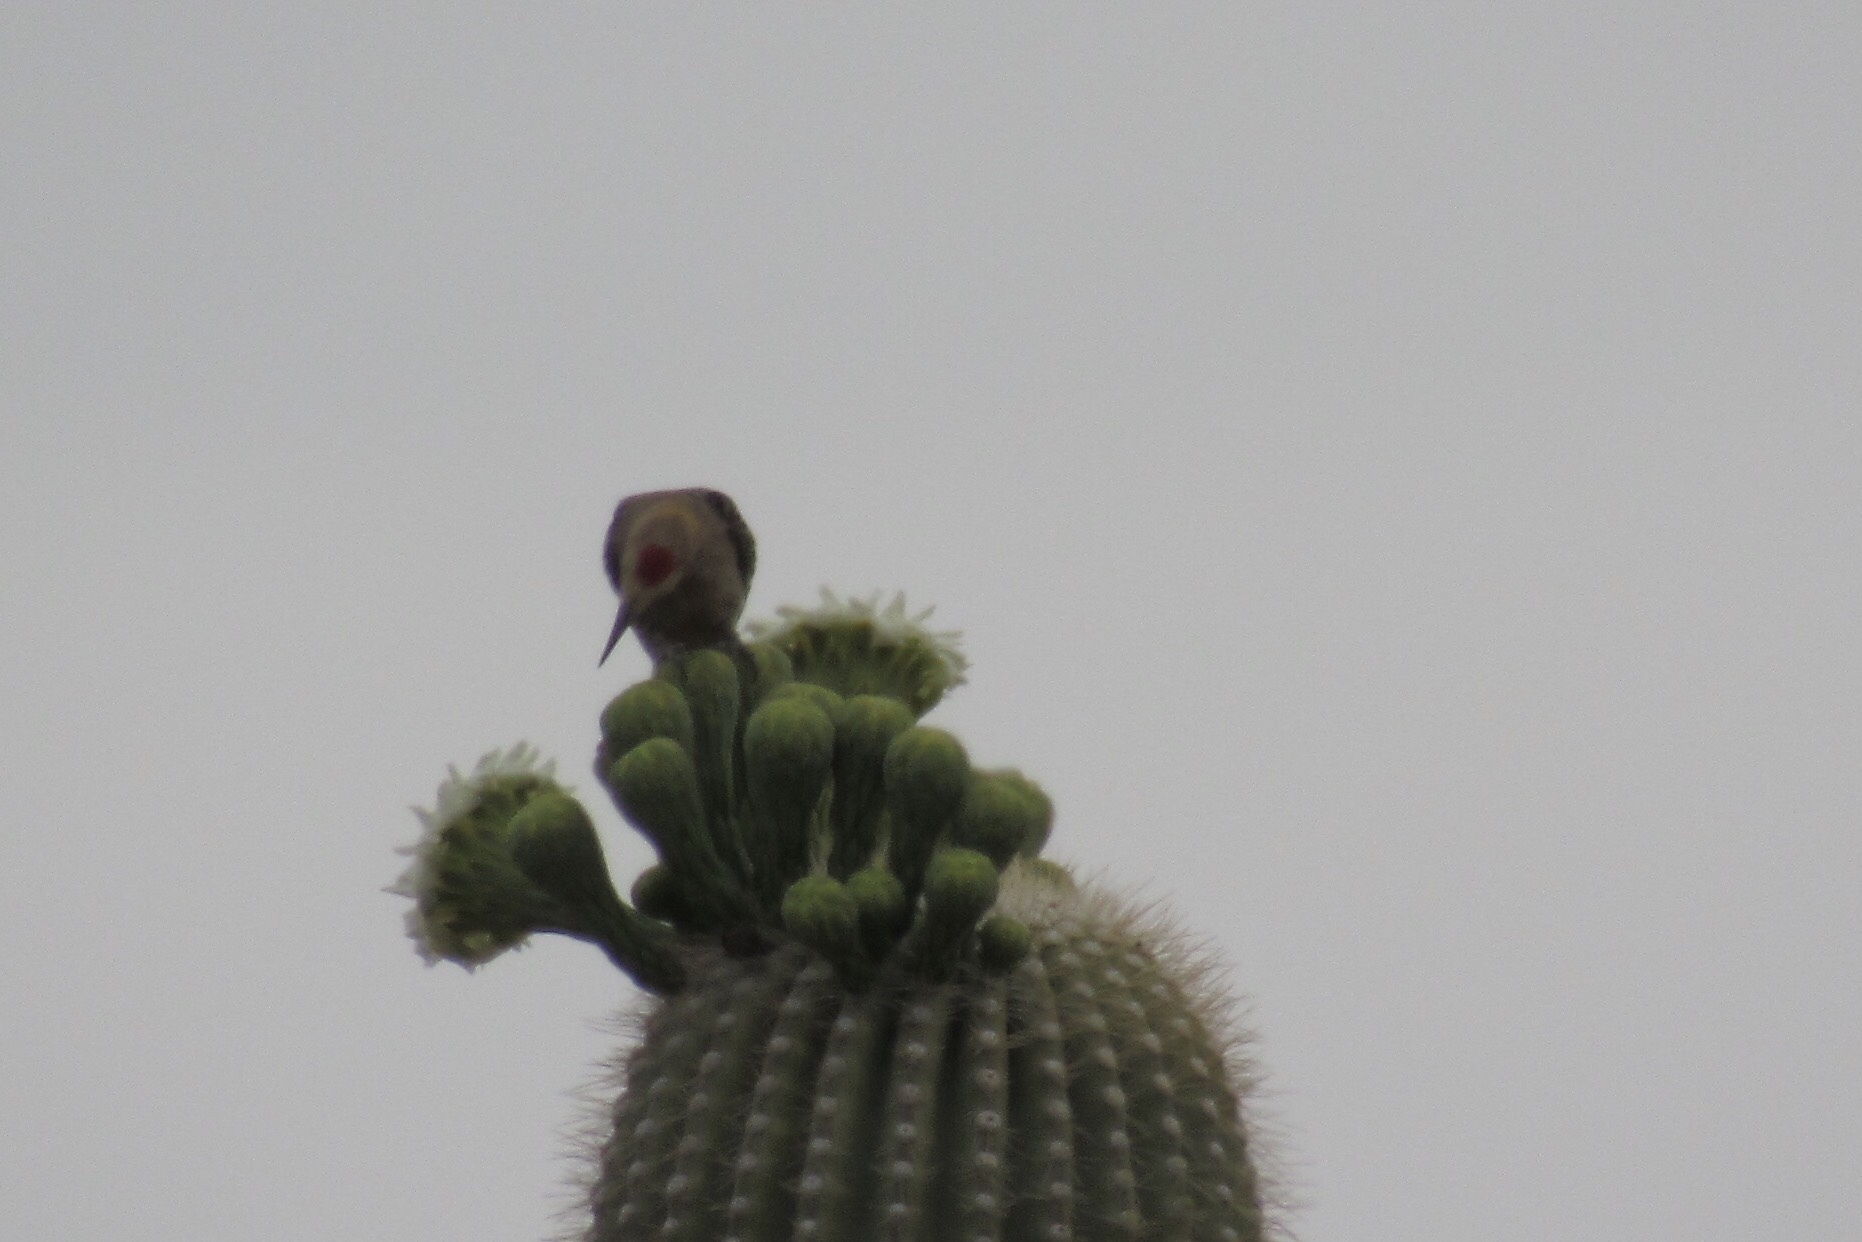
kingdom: Animalia
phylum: Chordata
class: Aves
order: Piciformes
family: Picidae
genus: Melanerpes
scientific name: Melanerpes uropygialis
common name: Gila woodpecker
